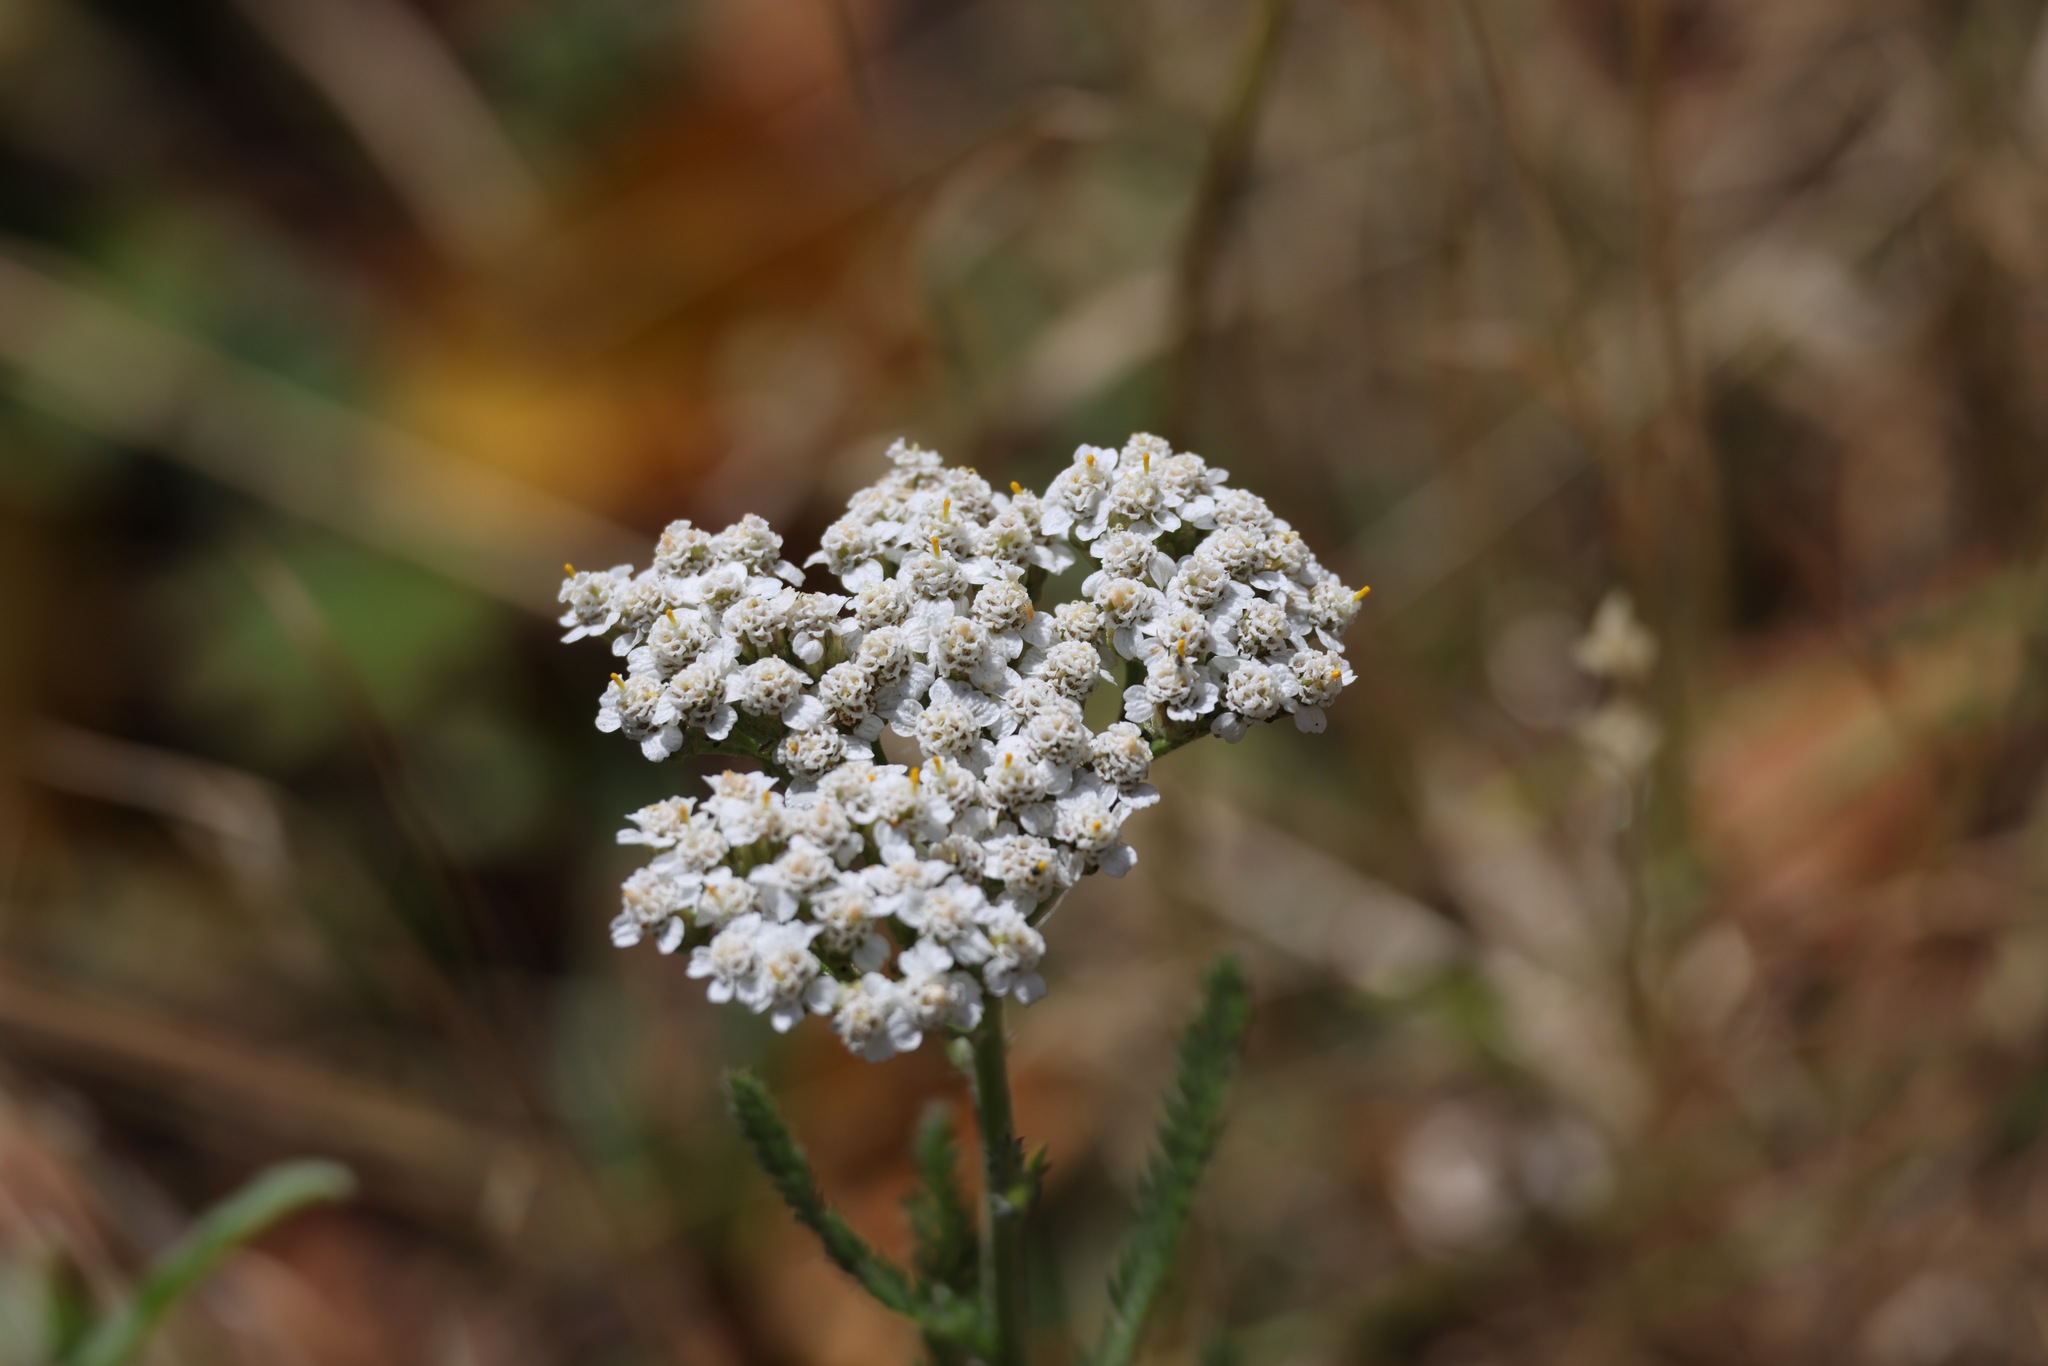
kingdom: Plantae
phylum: Tracheophyta
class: Magnoliopsida
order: Asterales
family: Asteraceae
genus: Achillea
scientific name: Achillea millefolium
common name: Yarrow
